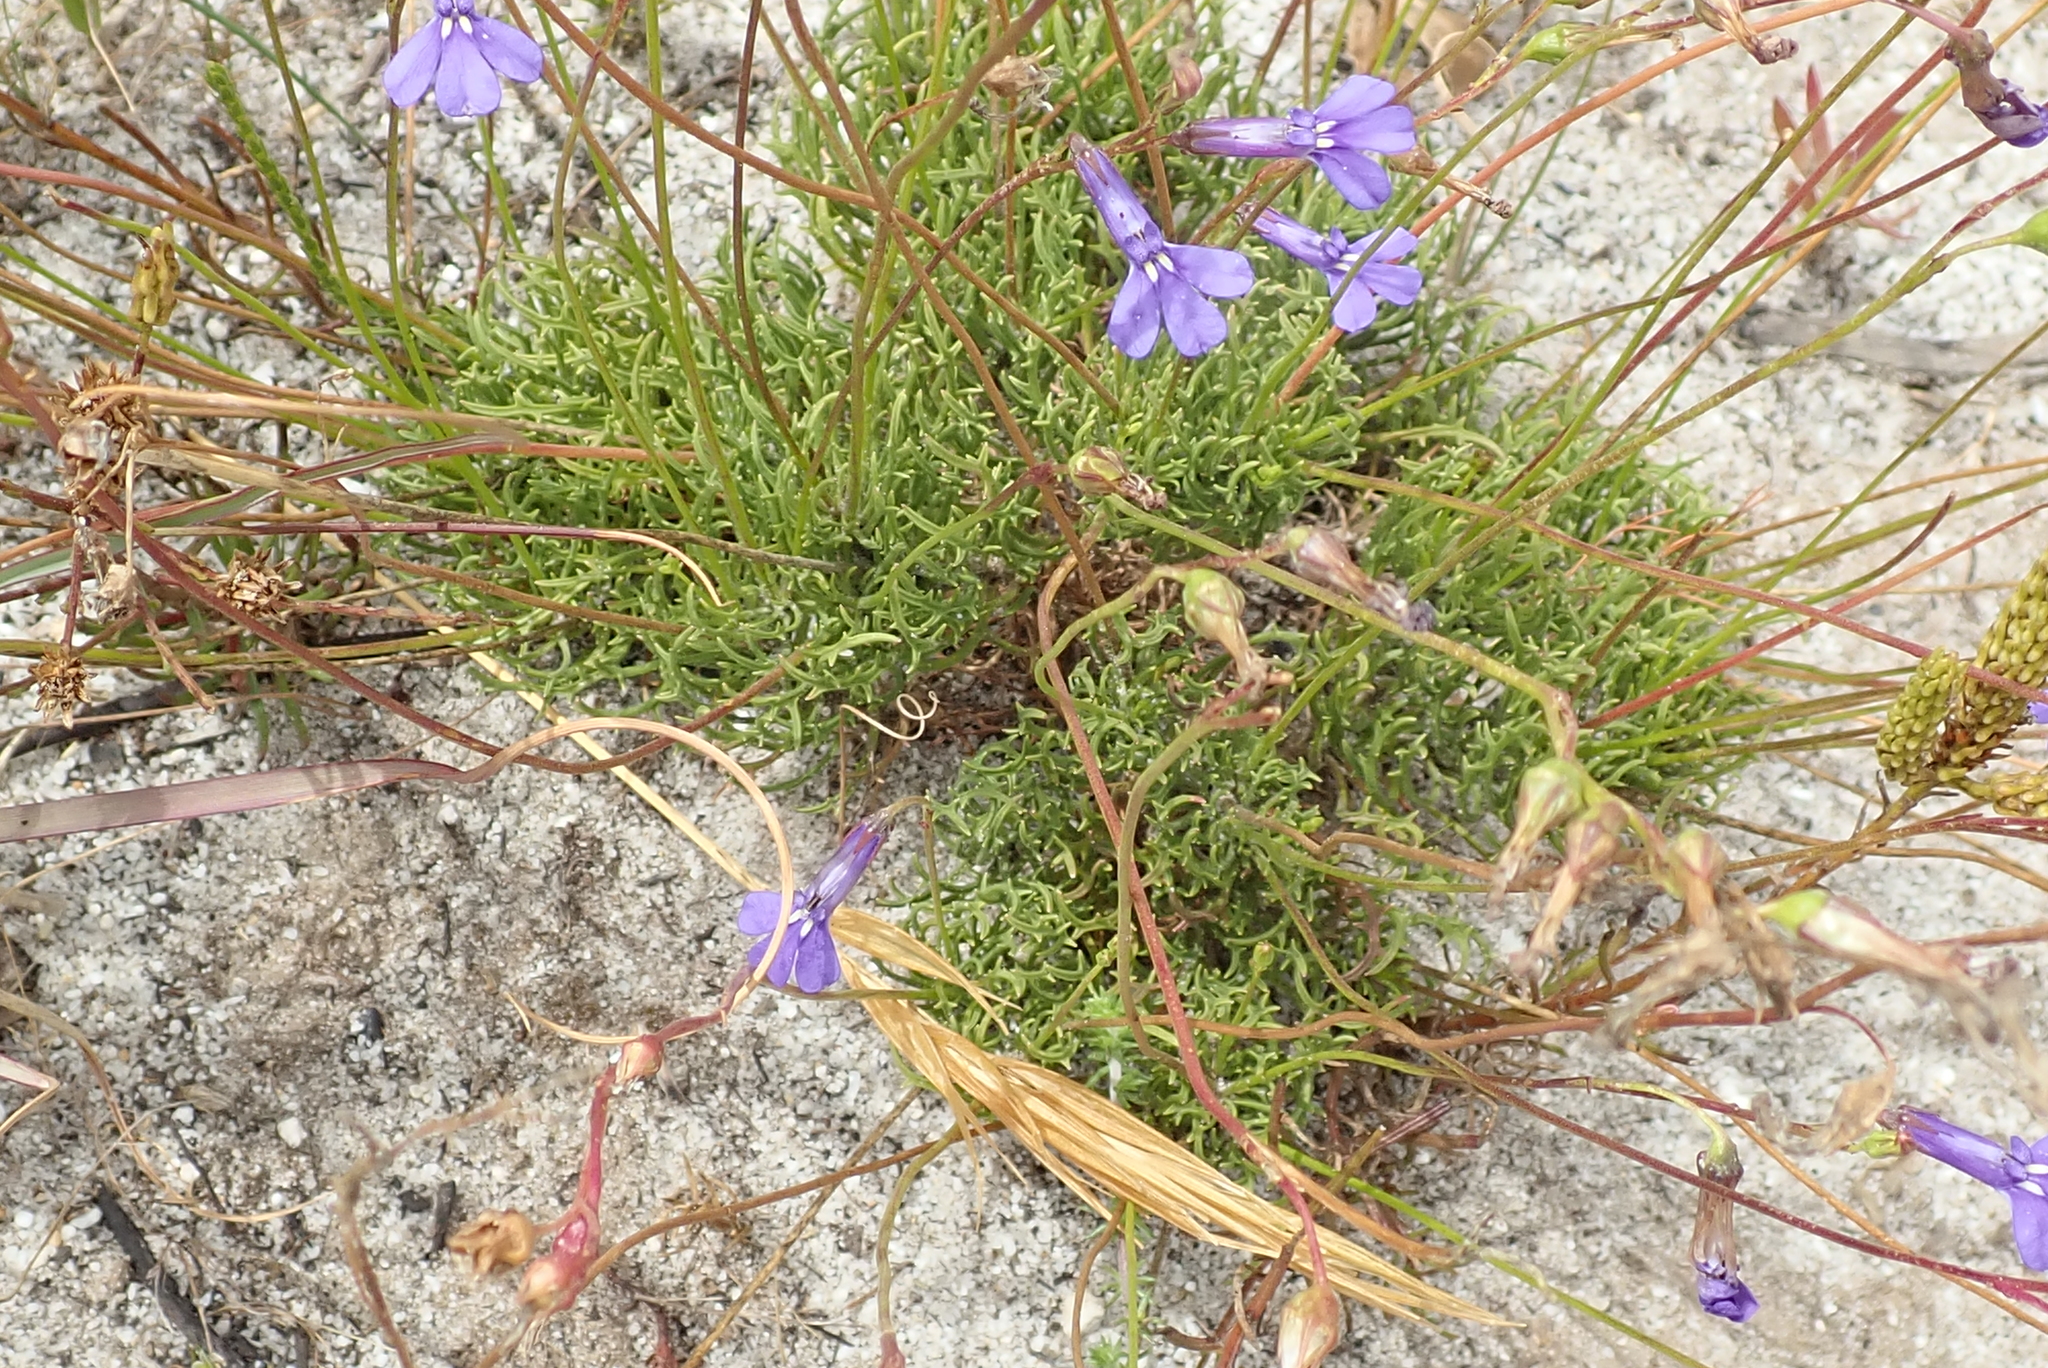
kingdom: Plantae
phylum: Tracheophyta
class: Magnoliopsida
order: Asterales
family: Campanulaceae
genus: Lobelia
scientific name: Lobelia coronopifolia
